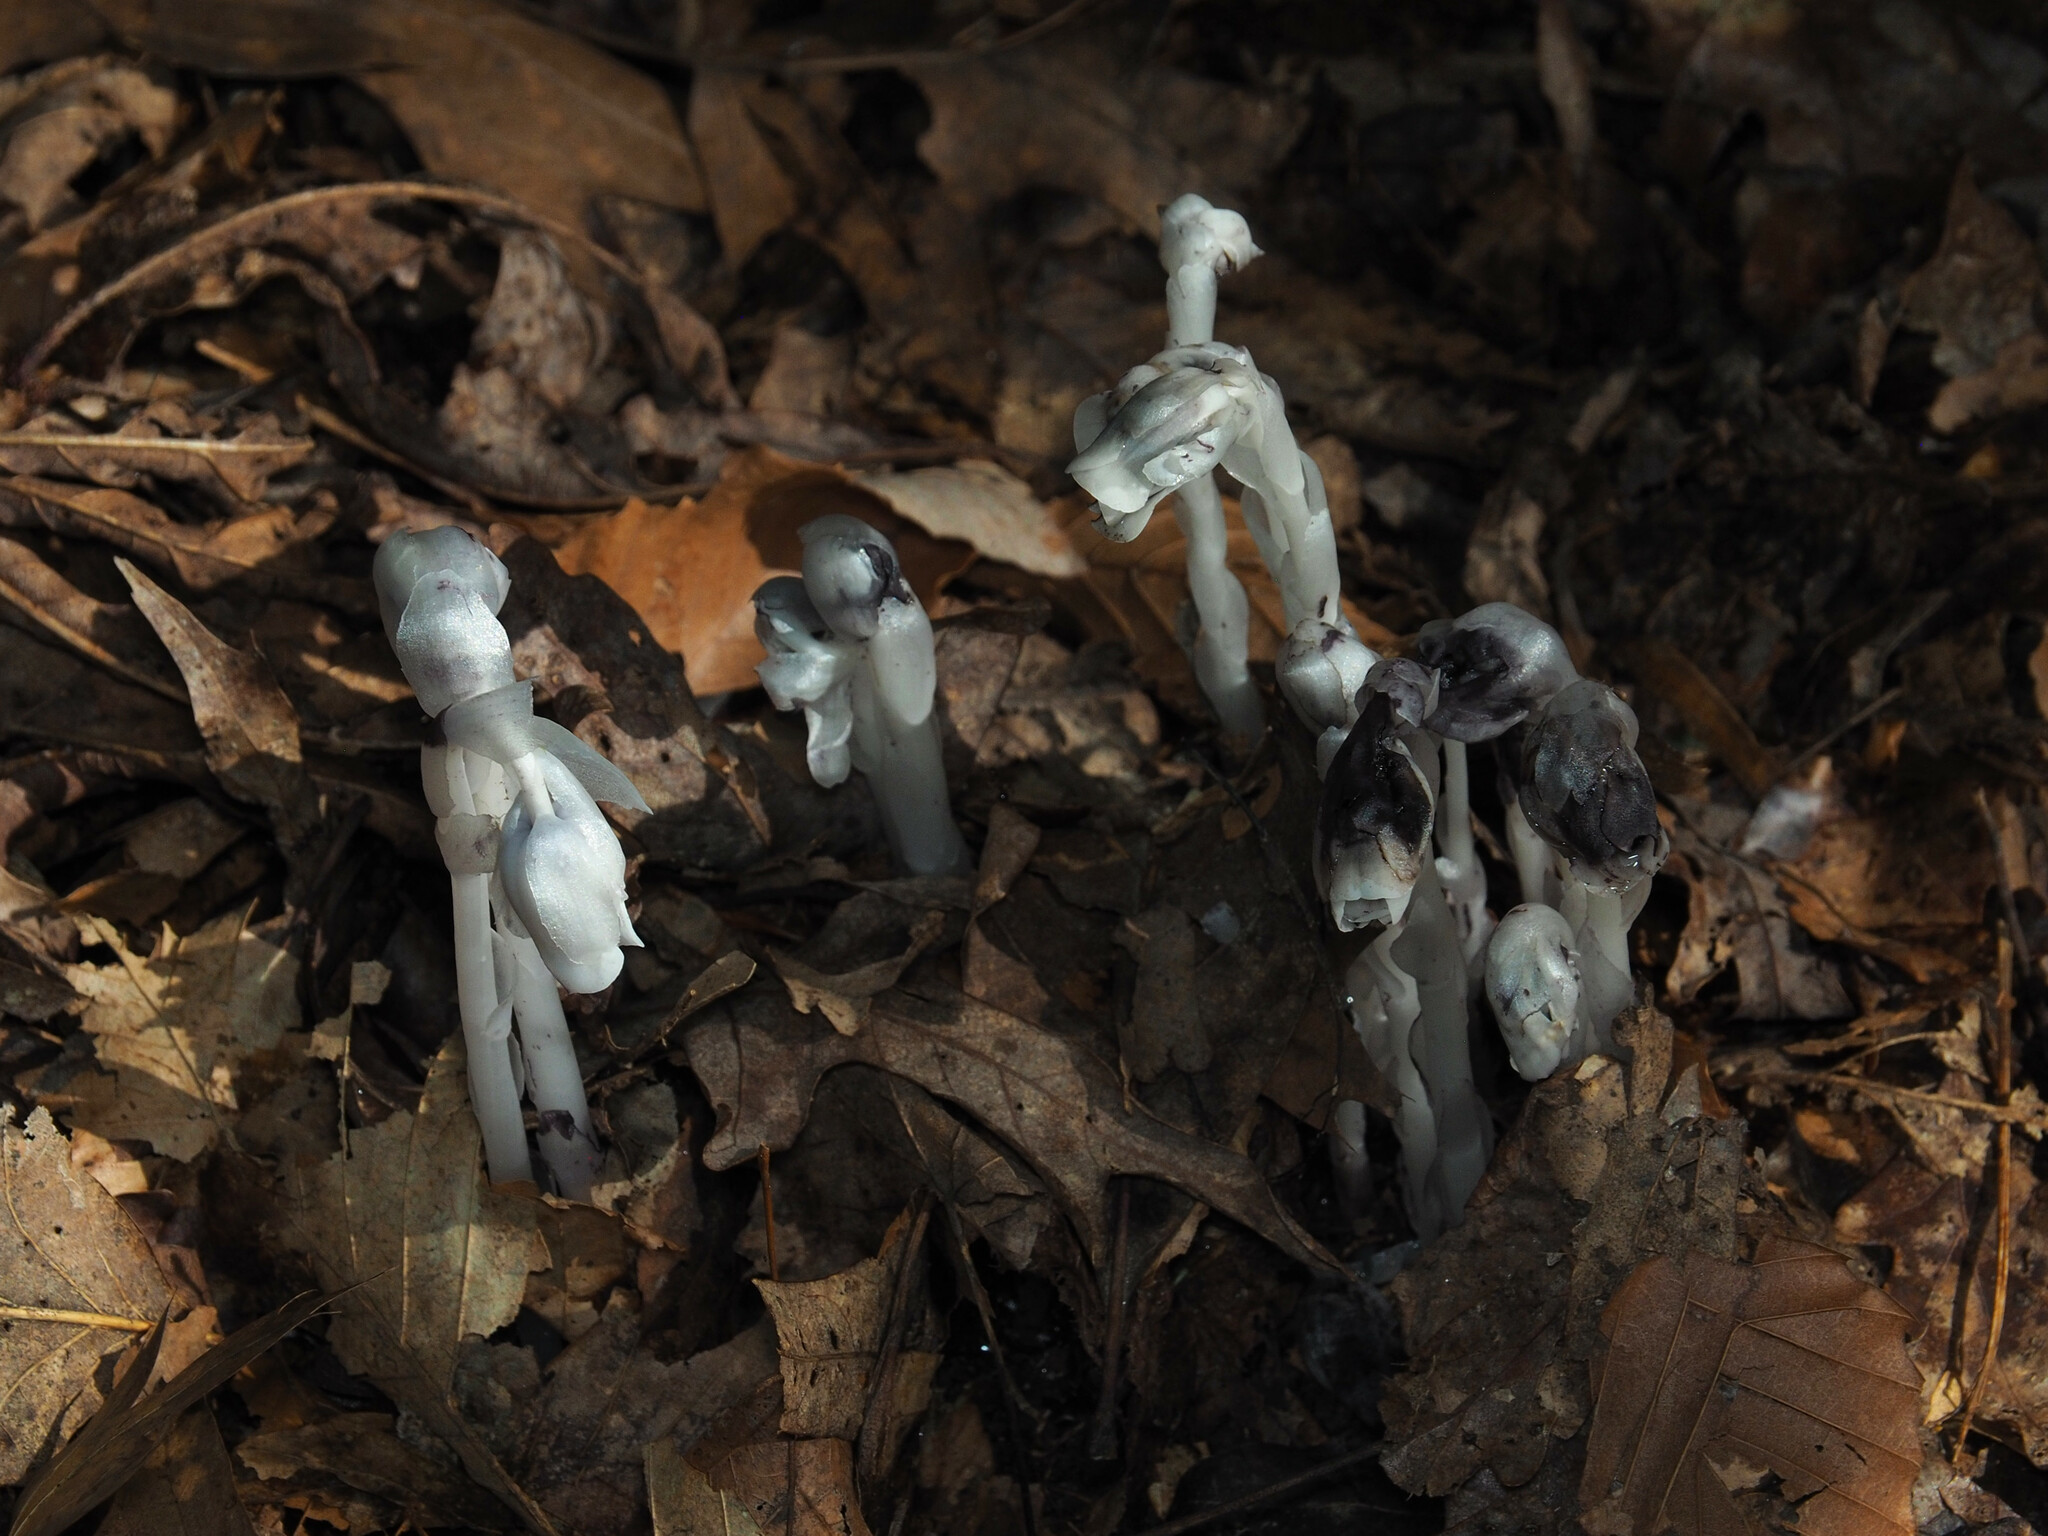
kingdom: Plantae
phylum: Tracheophyta
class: Magnoliopsida
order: Ericales
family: Ericaceae
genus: Monotropa
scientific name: Monotropa uniflora
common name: Convulsion root
